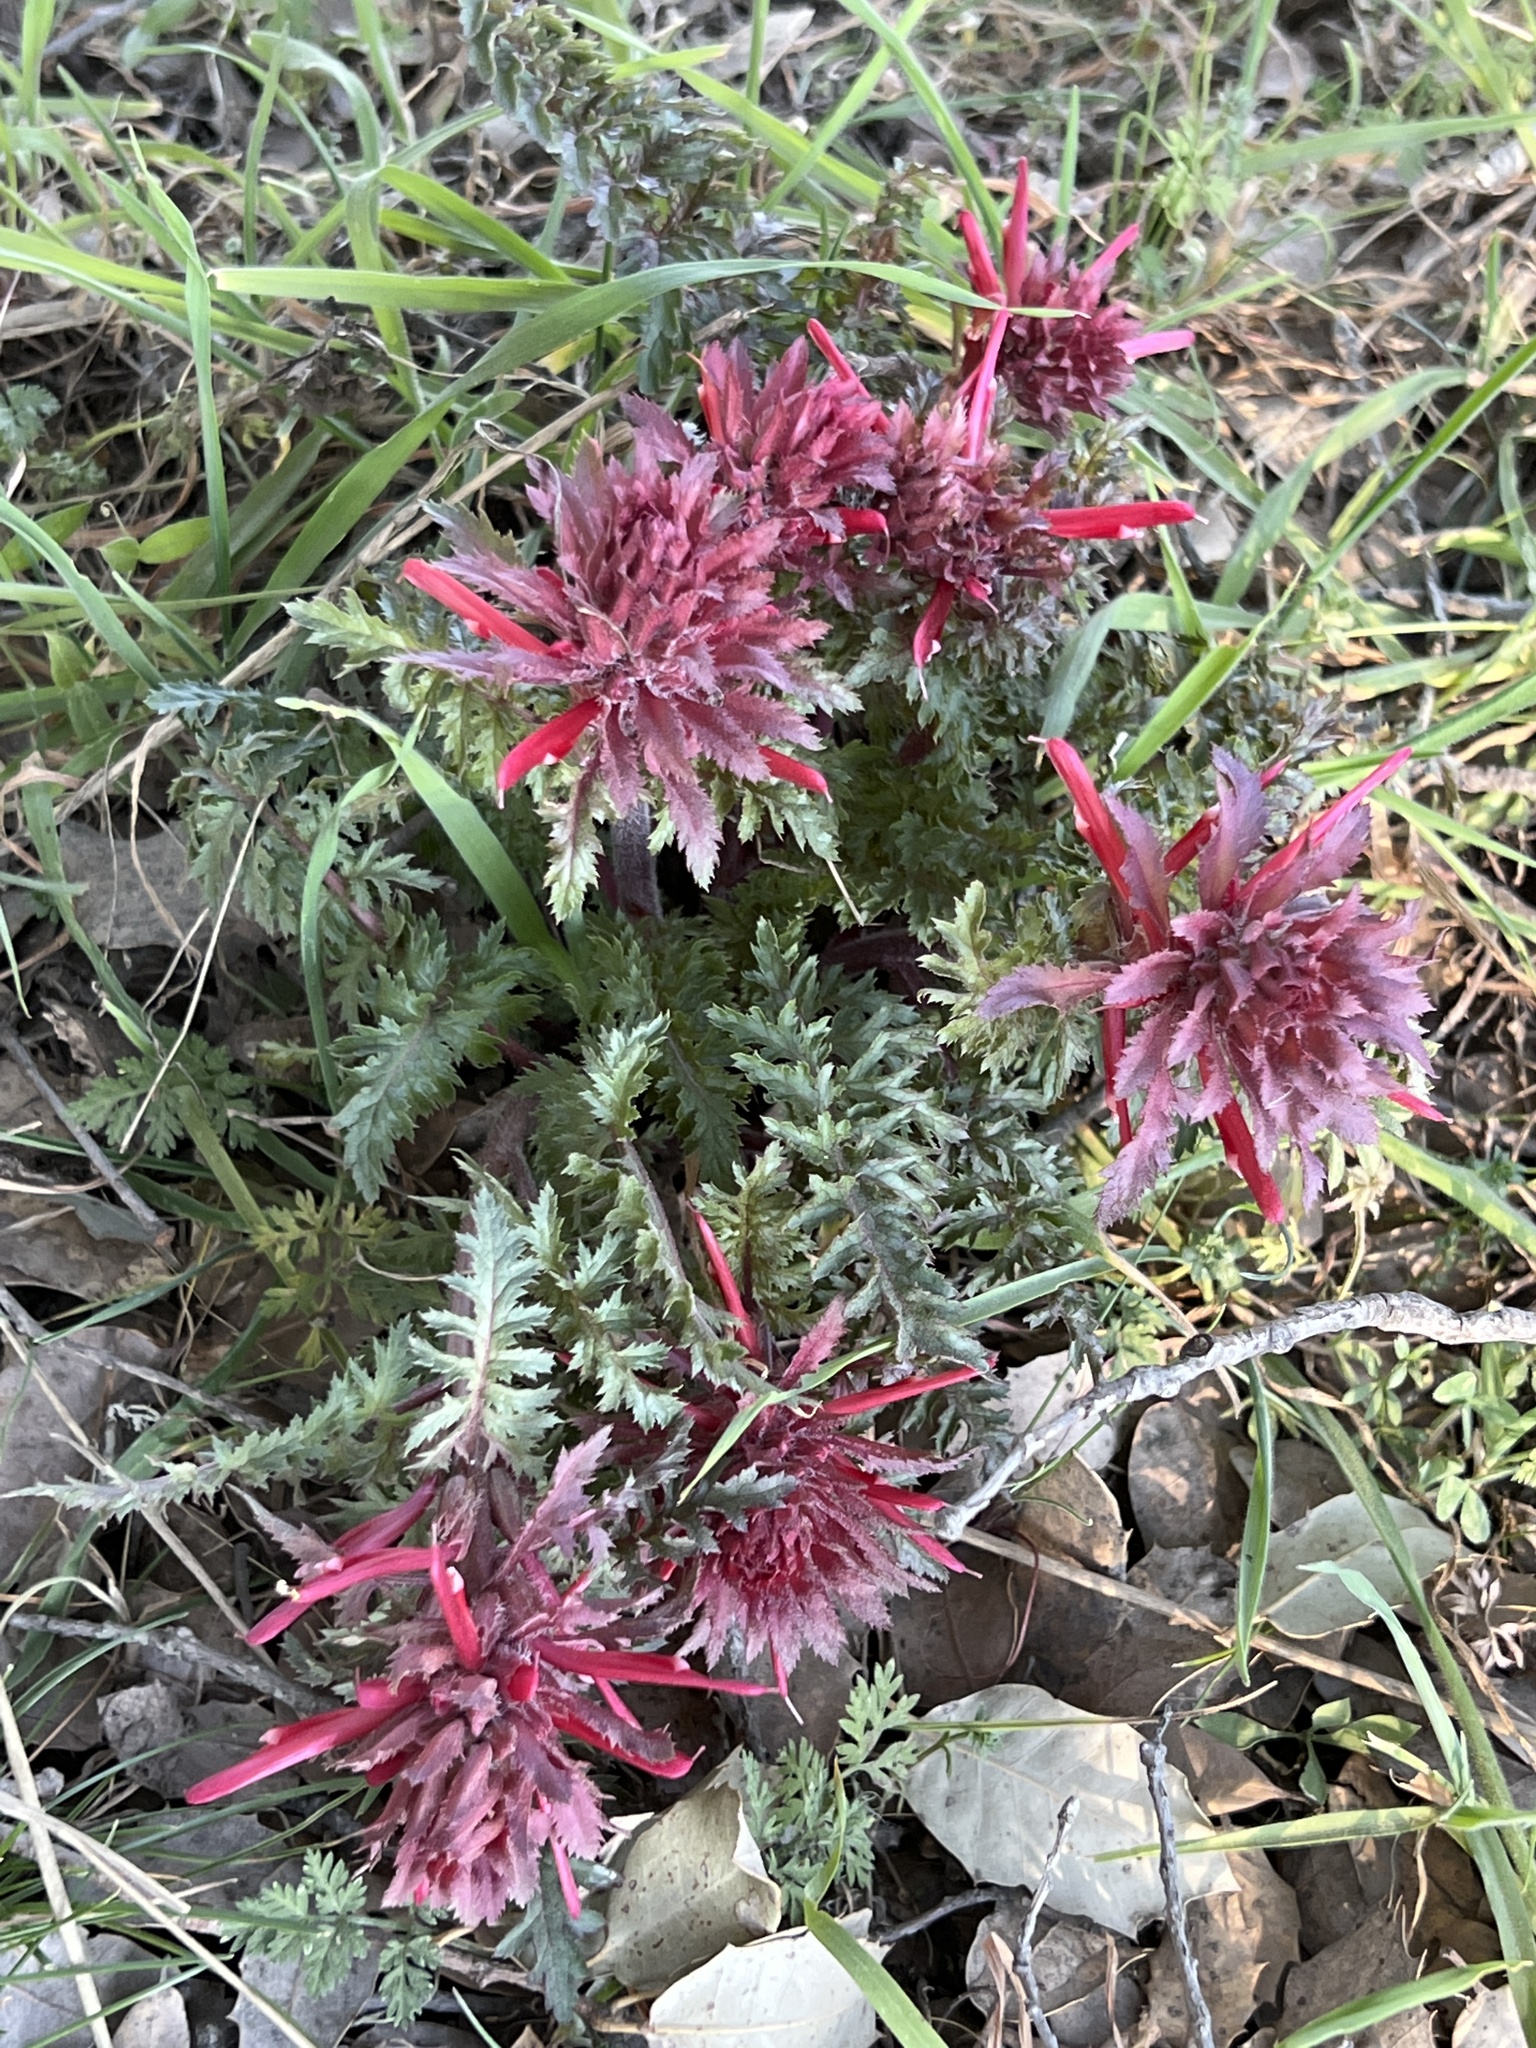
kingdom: Plantae
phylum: Tracheophyta
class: Magnoliopsida
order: Lamiales
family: Orobanchaceae
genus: Pedicularis
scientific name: Pedicularis densiflora
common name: Indian warrior
